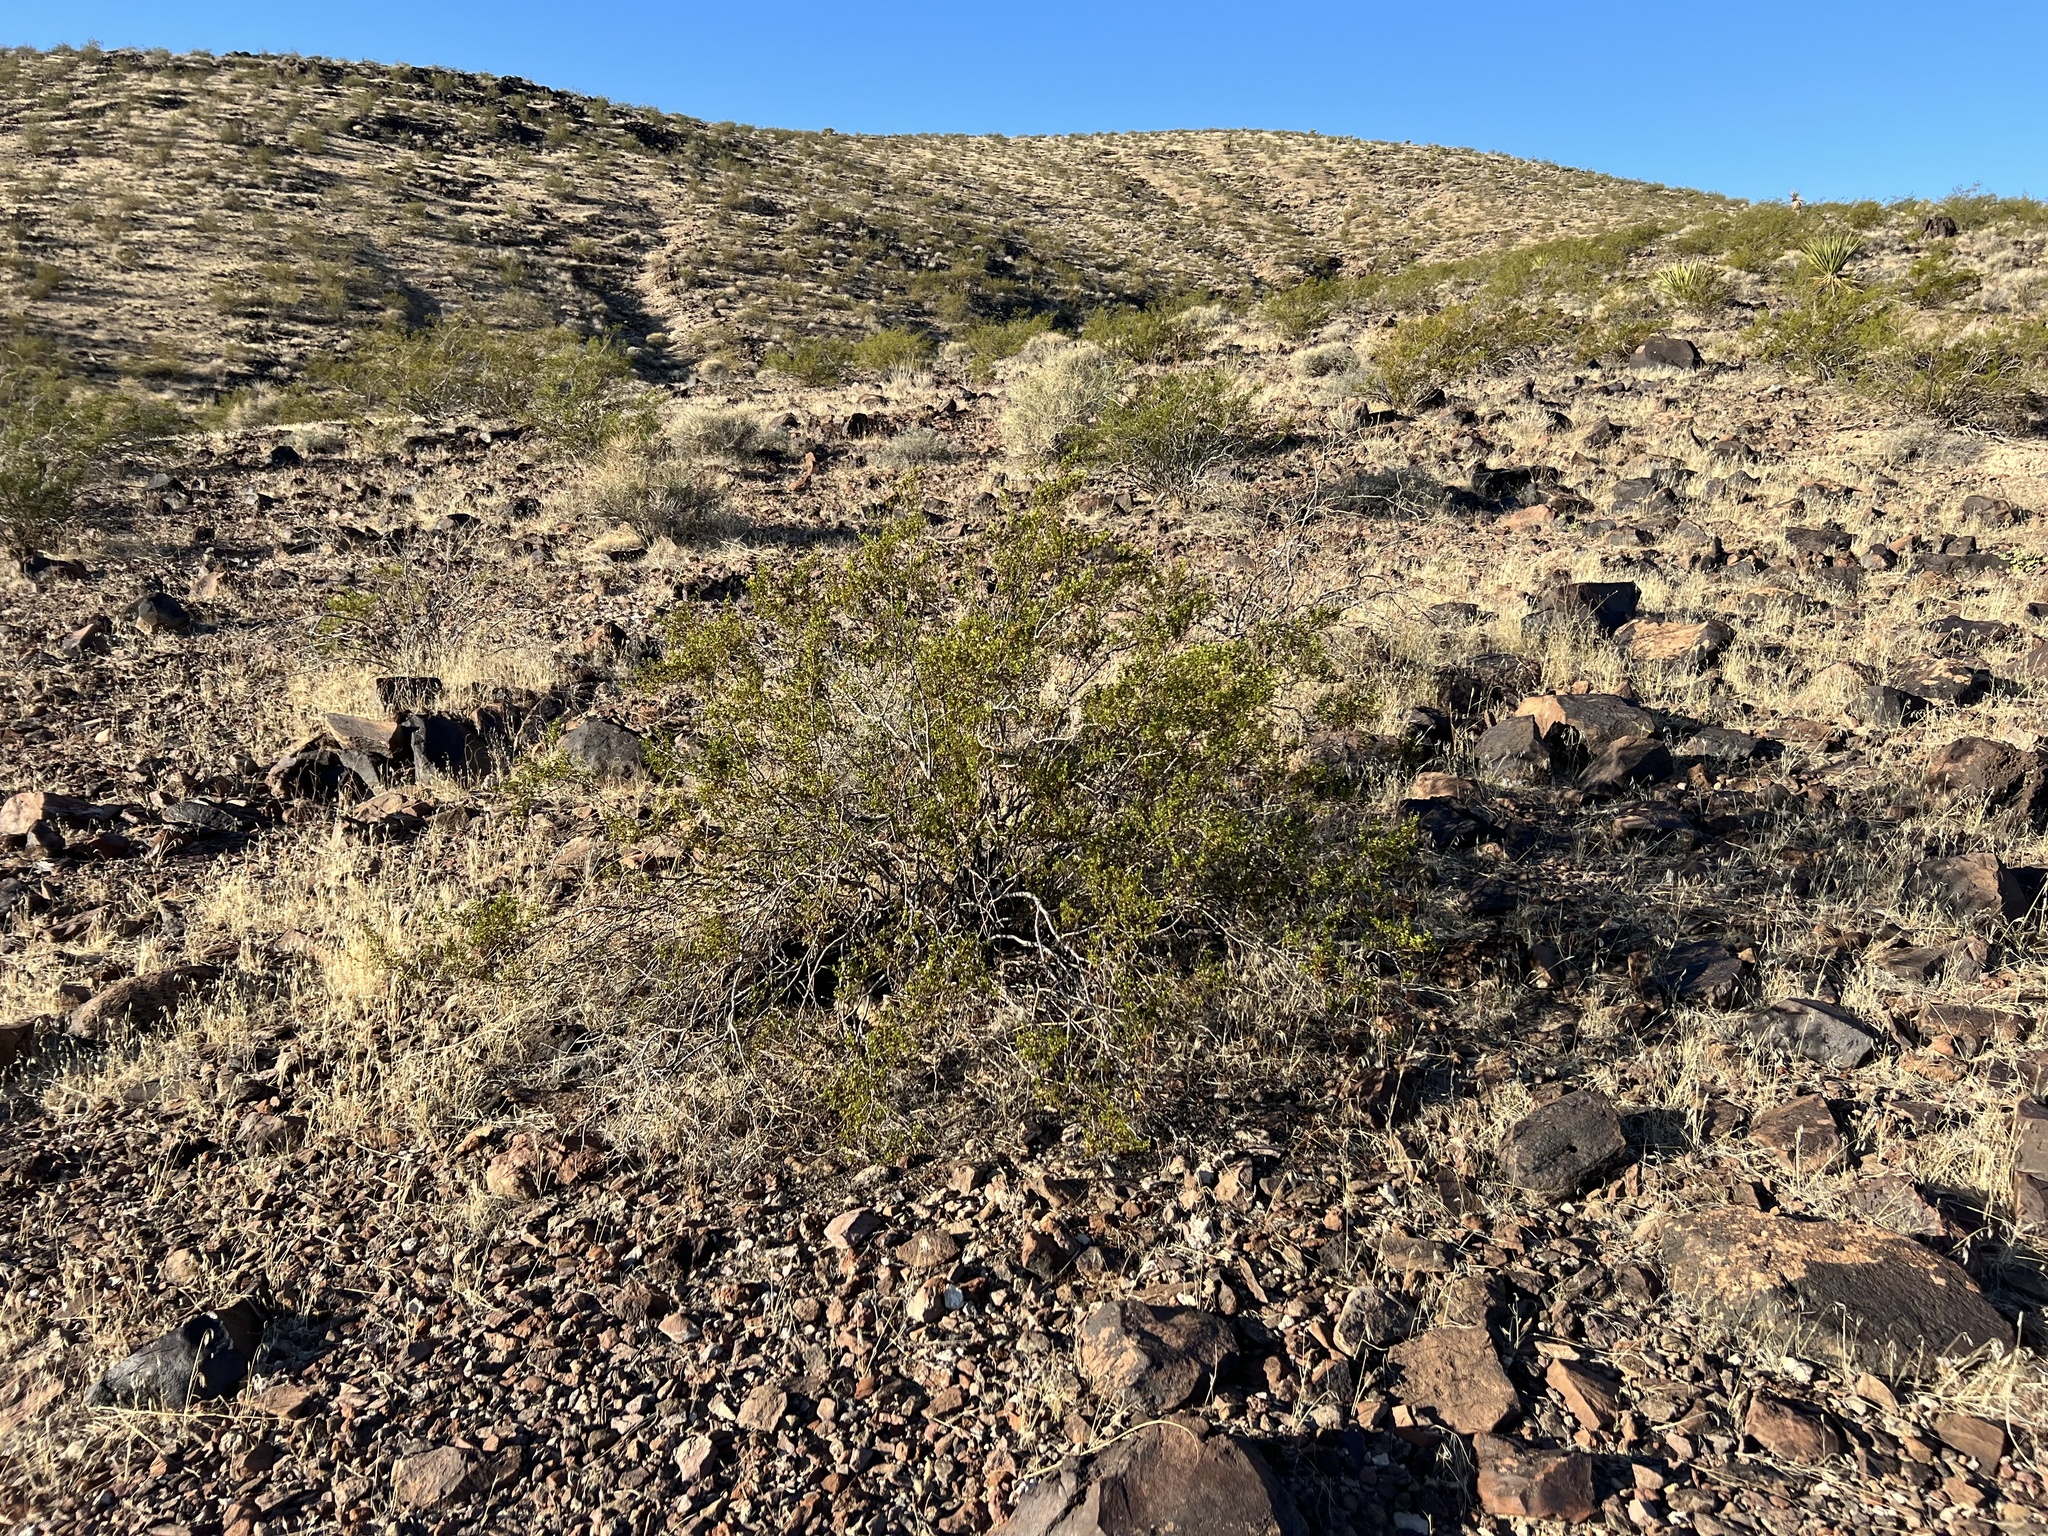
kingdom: Plantae
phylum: Tracheophyta
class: Magnoliopsida
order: Zygophyllales
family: Zygophyllaceae
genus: Larrea
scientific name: Larrea tridentata
